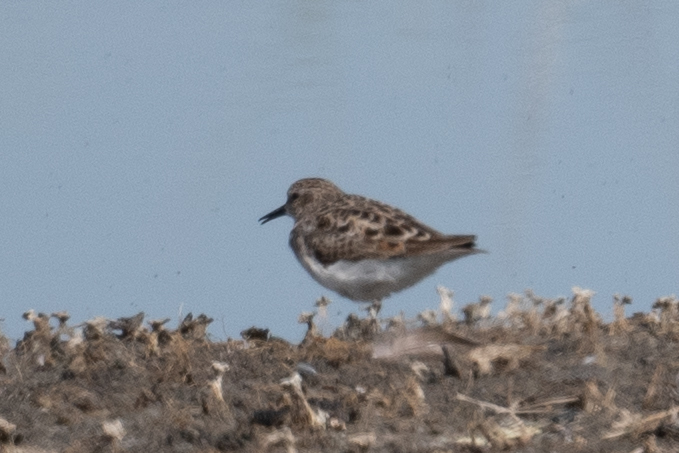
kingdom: Animalia
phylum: Chordata
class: Aves
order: Charadriiformes
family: Scolopacidae
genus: Calidris
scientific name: Calidris minutilla
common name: Least sandpiper
